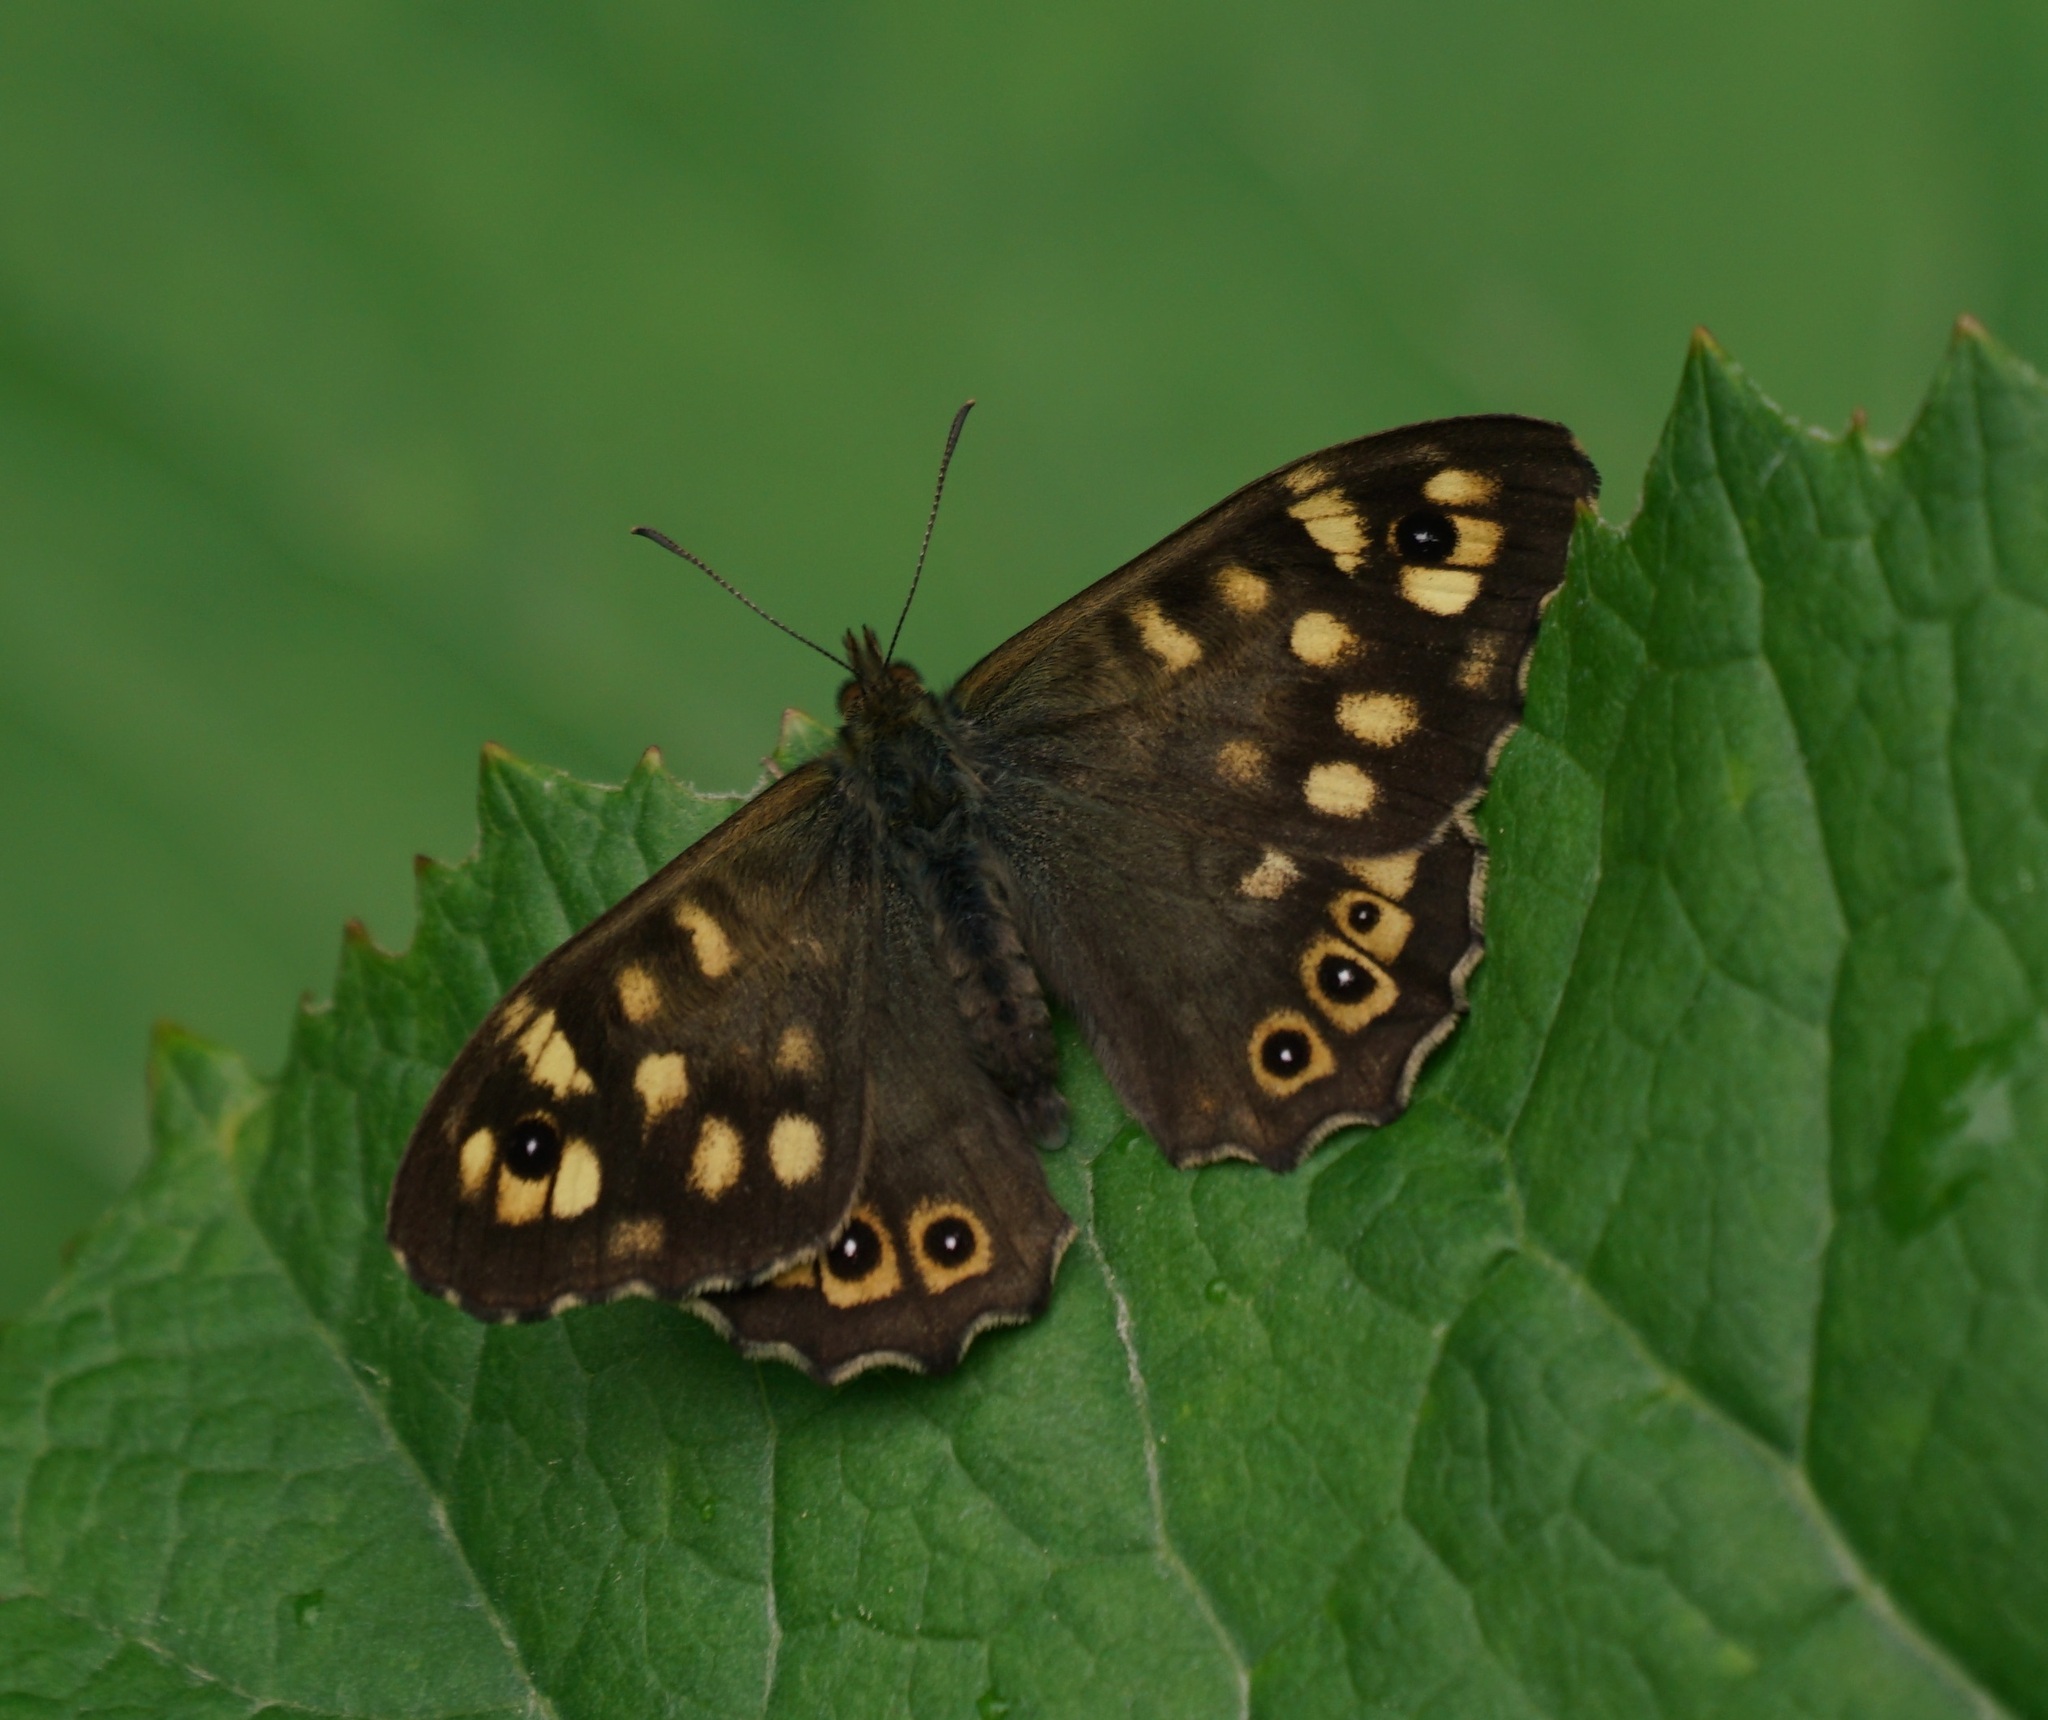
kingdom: Animalia
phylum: Arthropoda
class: Insecta
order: Lepidoptera
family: Nymphalidae
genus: Pararge
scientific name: Pararge aegeria
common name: Speckled wood
